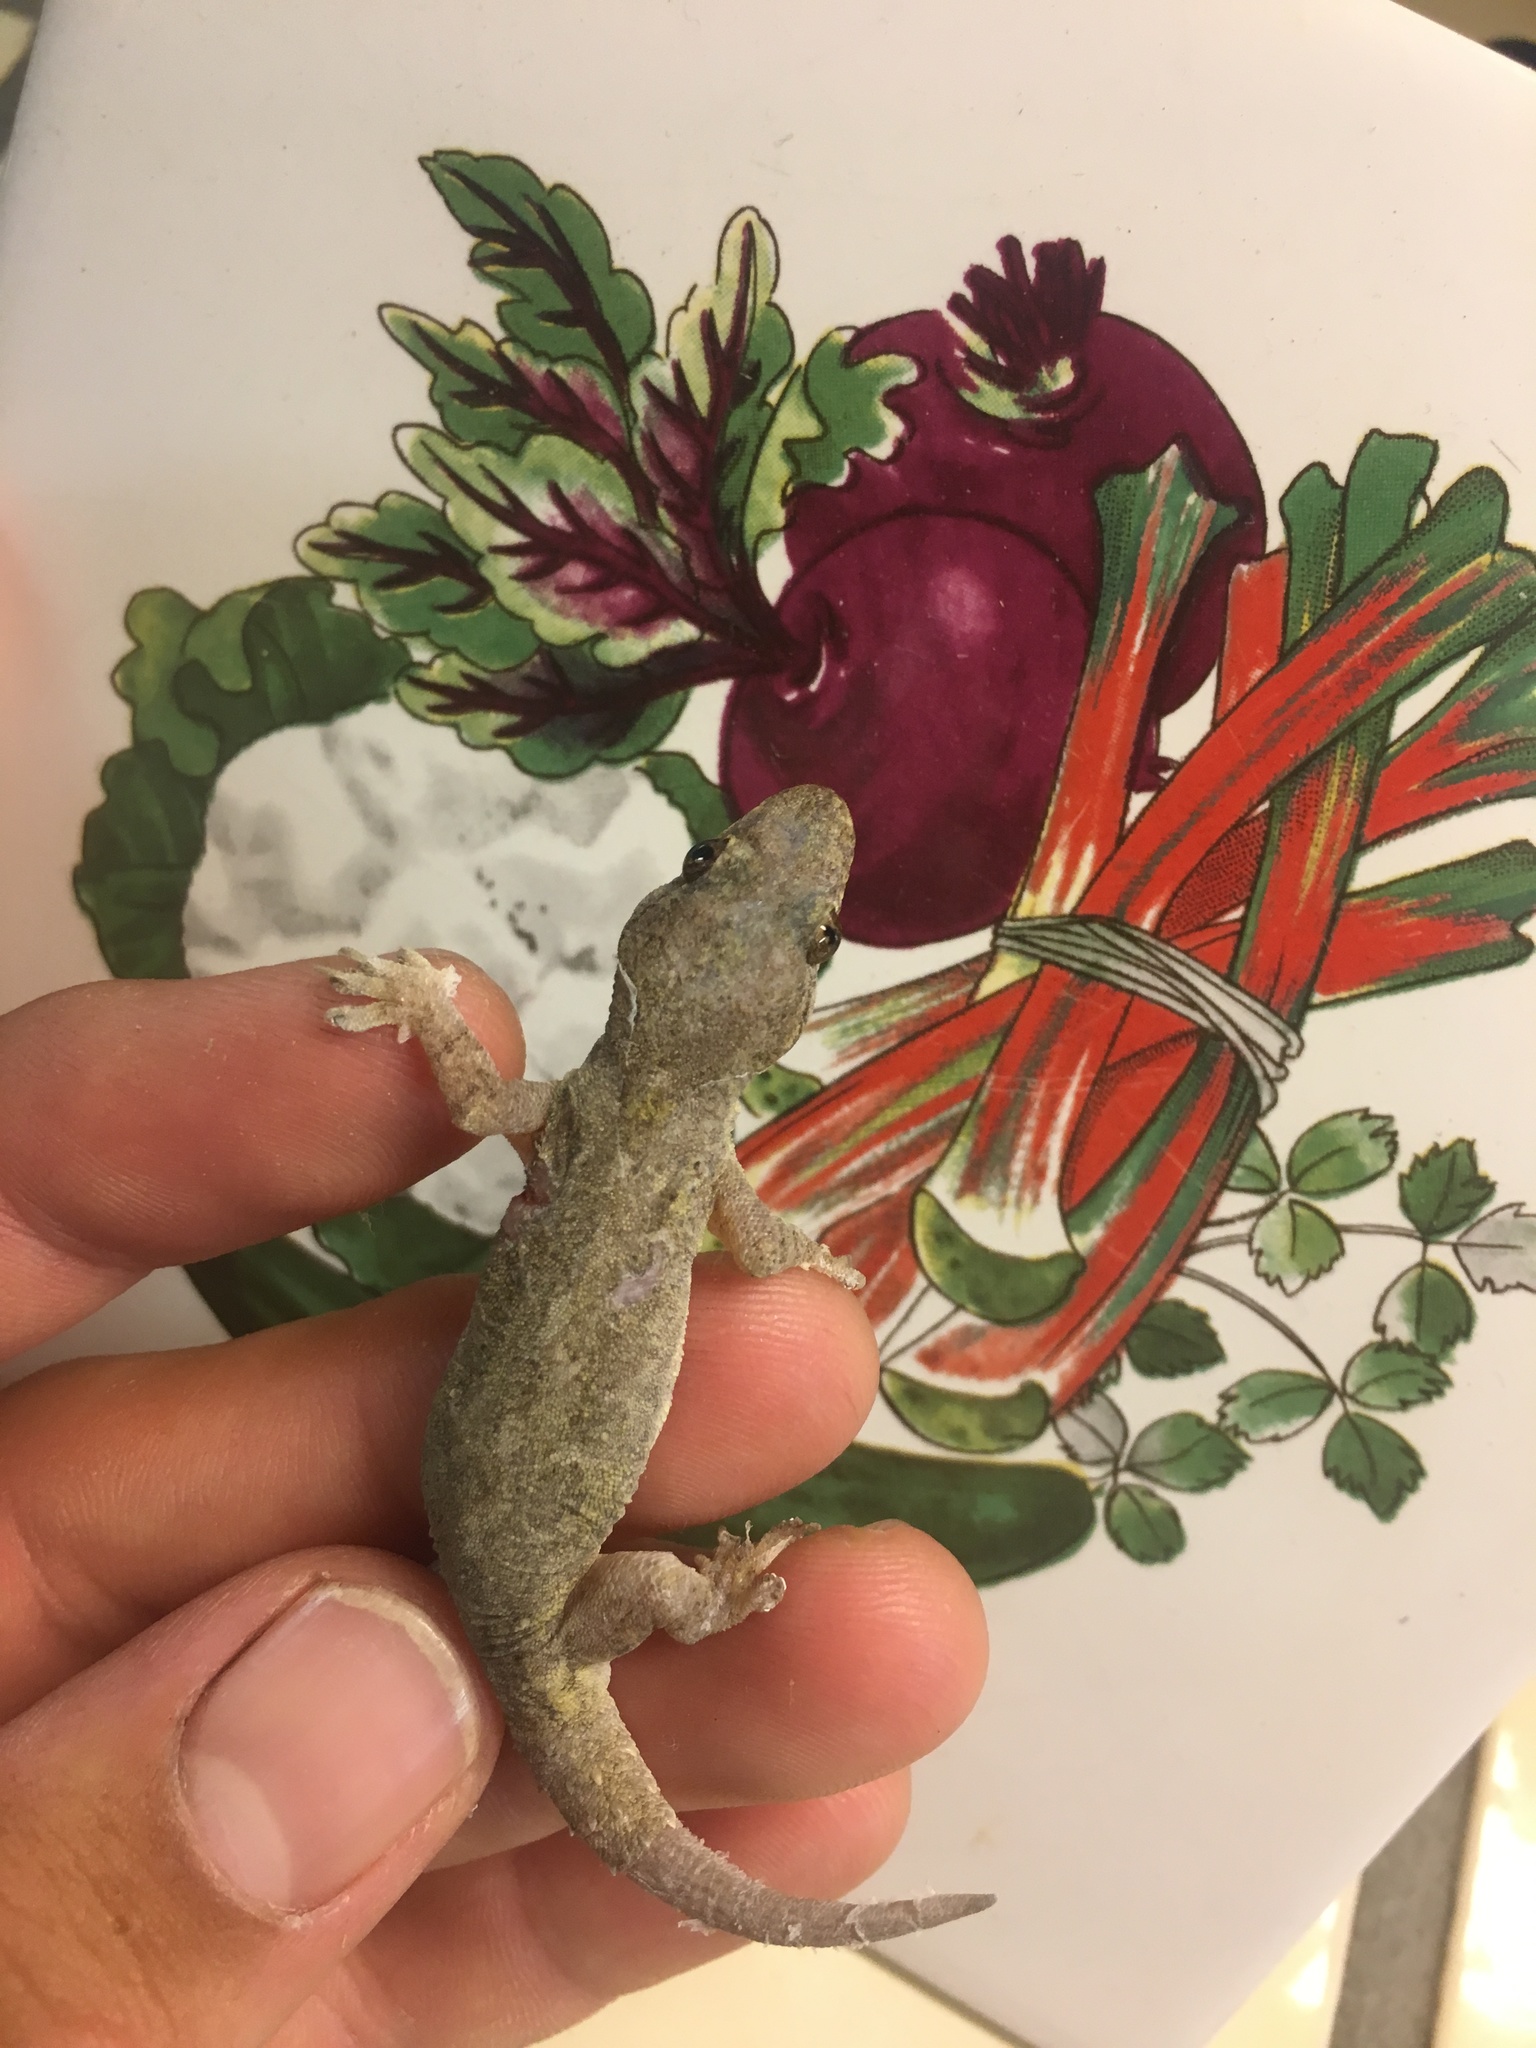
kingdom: Animalia
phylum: Chordata
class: Squamata
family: Gekkonidae
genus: Hemidactylus
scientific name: Hemidactylus frenatus
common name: Common house gecko
